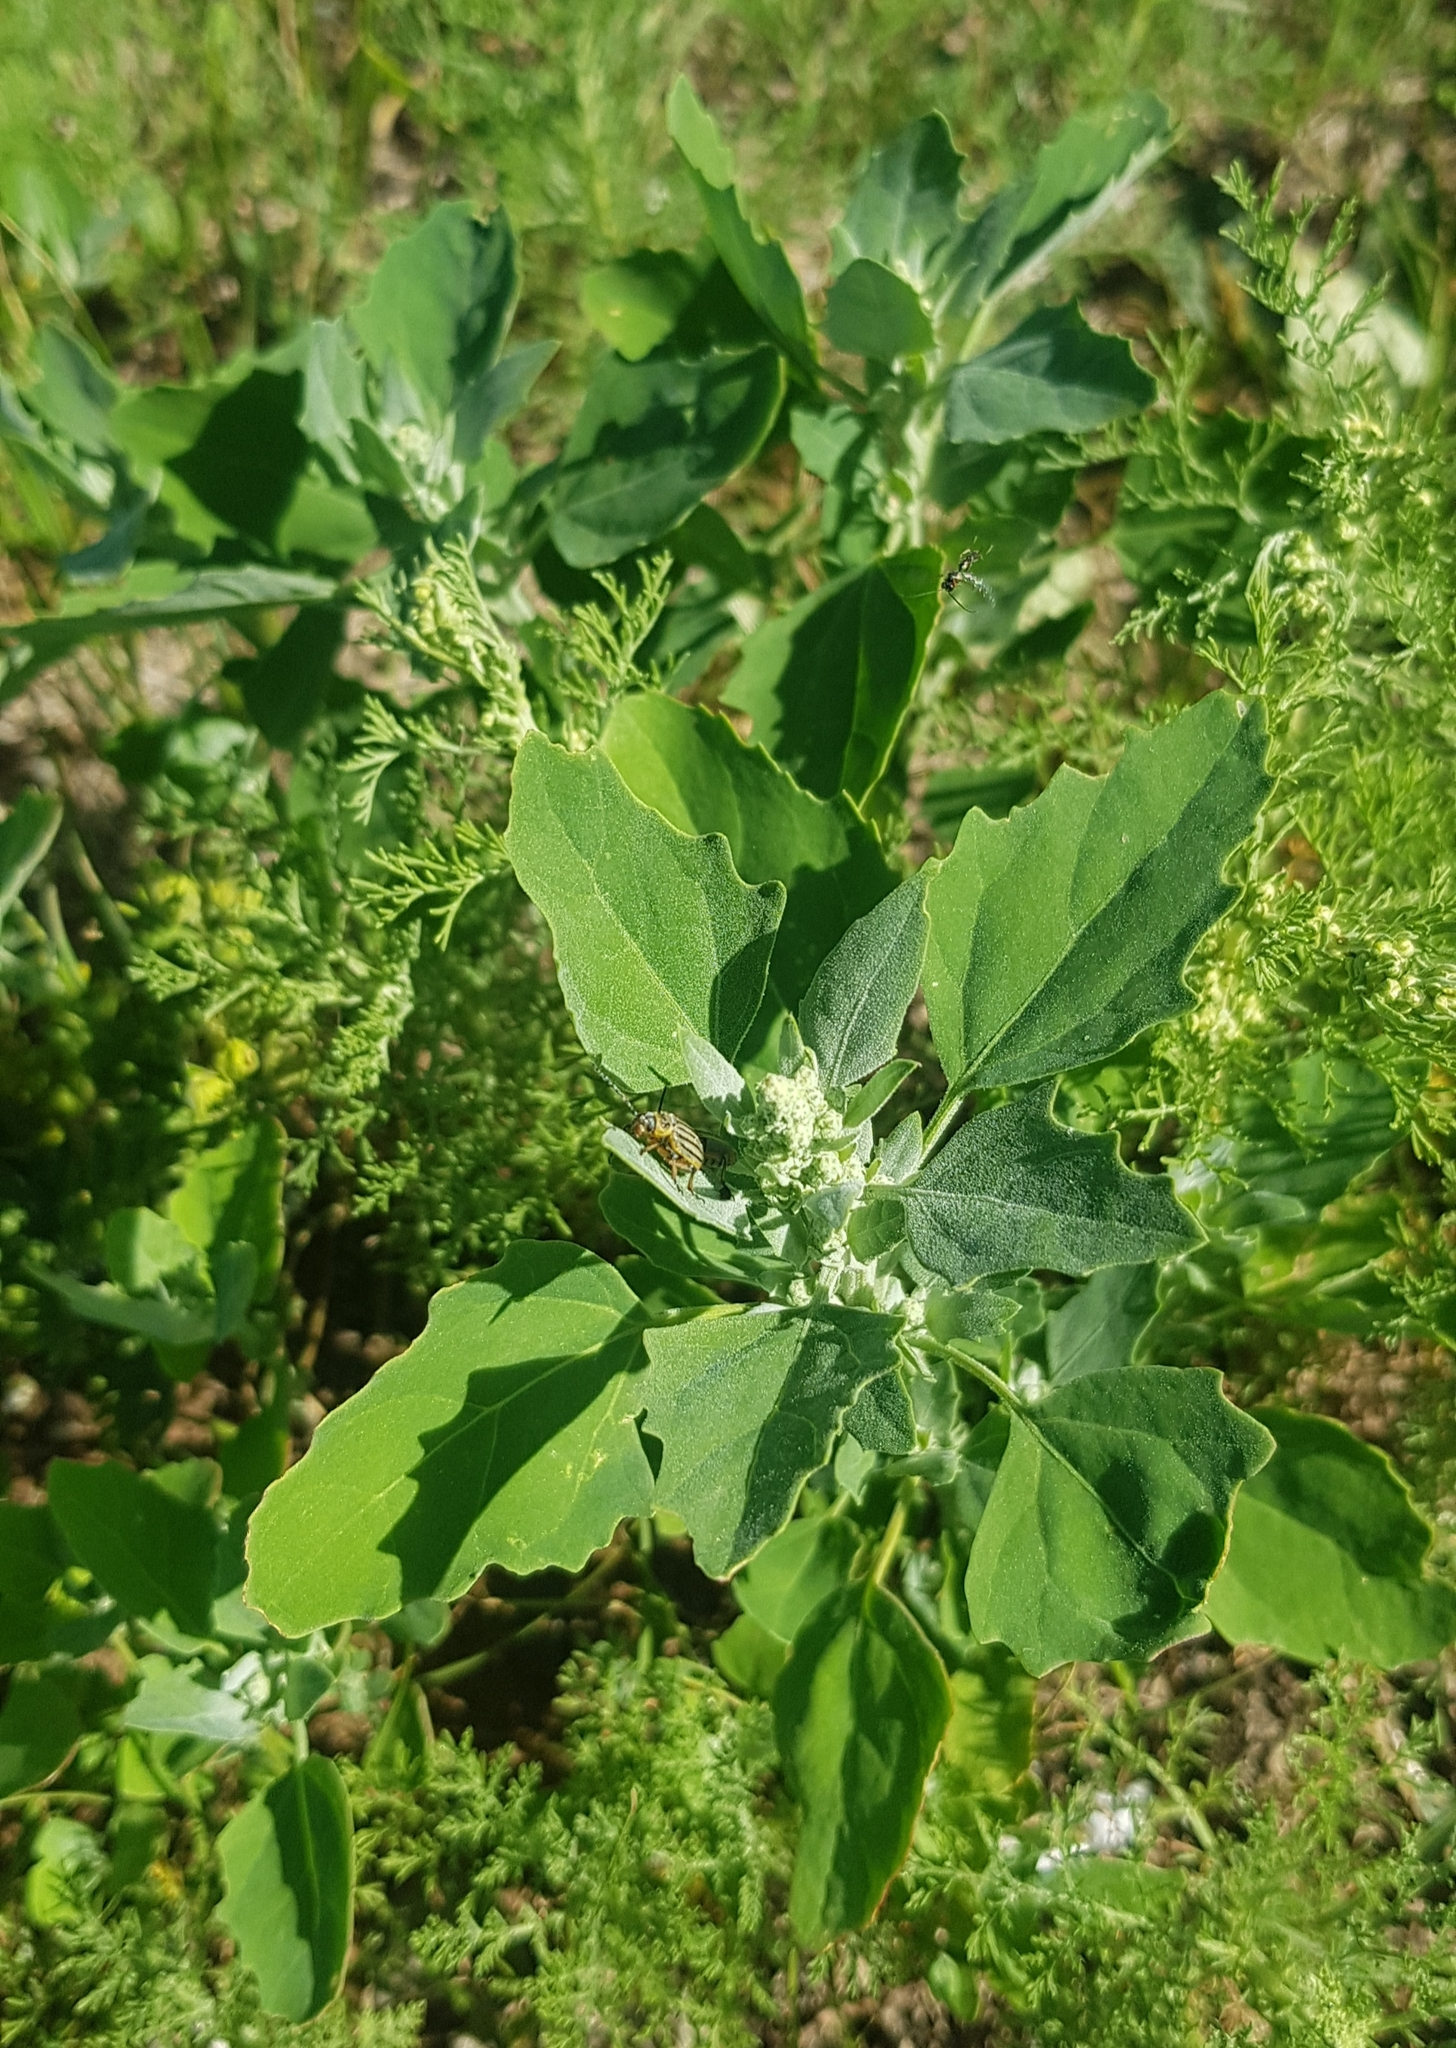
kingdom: Plantae
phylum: Tracheophyta
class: Magnoliopsida
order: Caryophyllales
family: Amaranthaceae
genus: Chenopodium
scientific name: Chenopodium album
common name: Fat-hen
